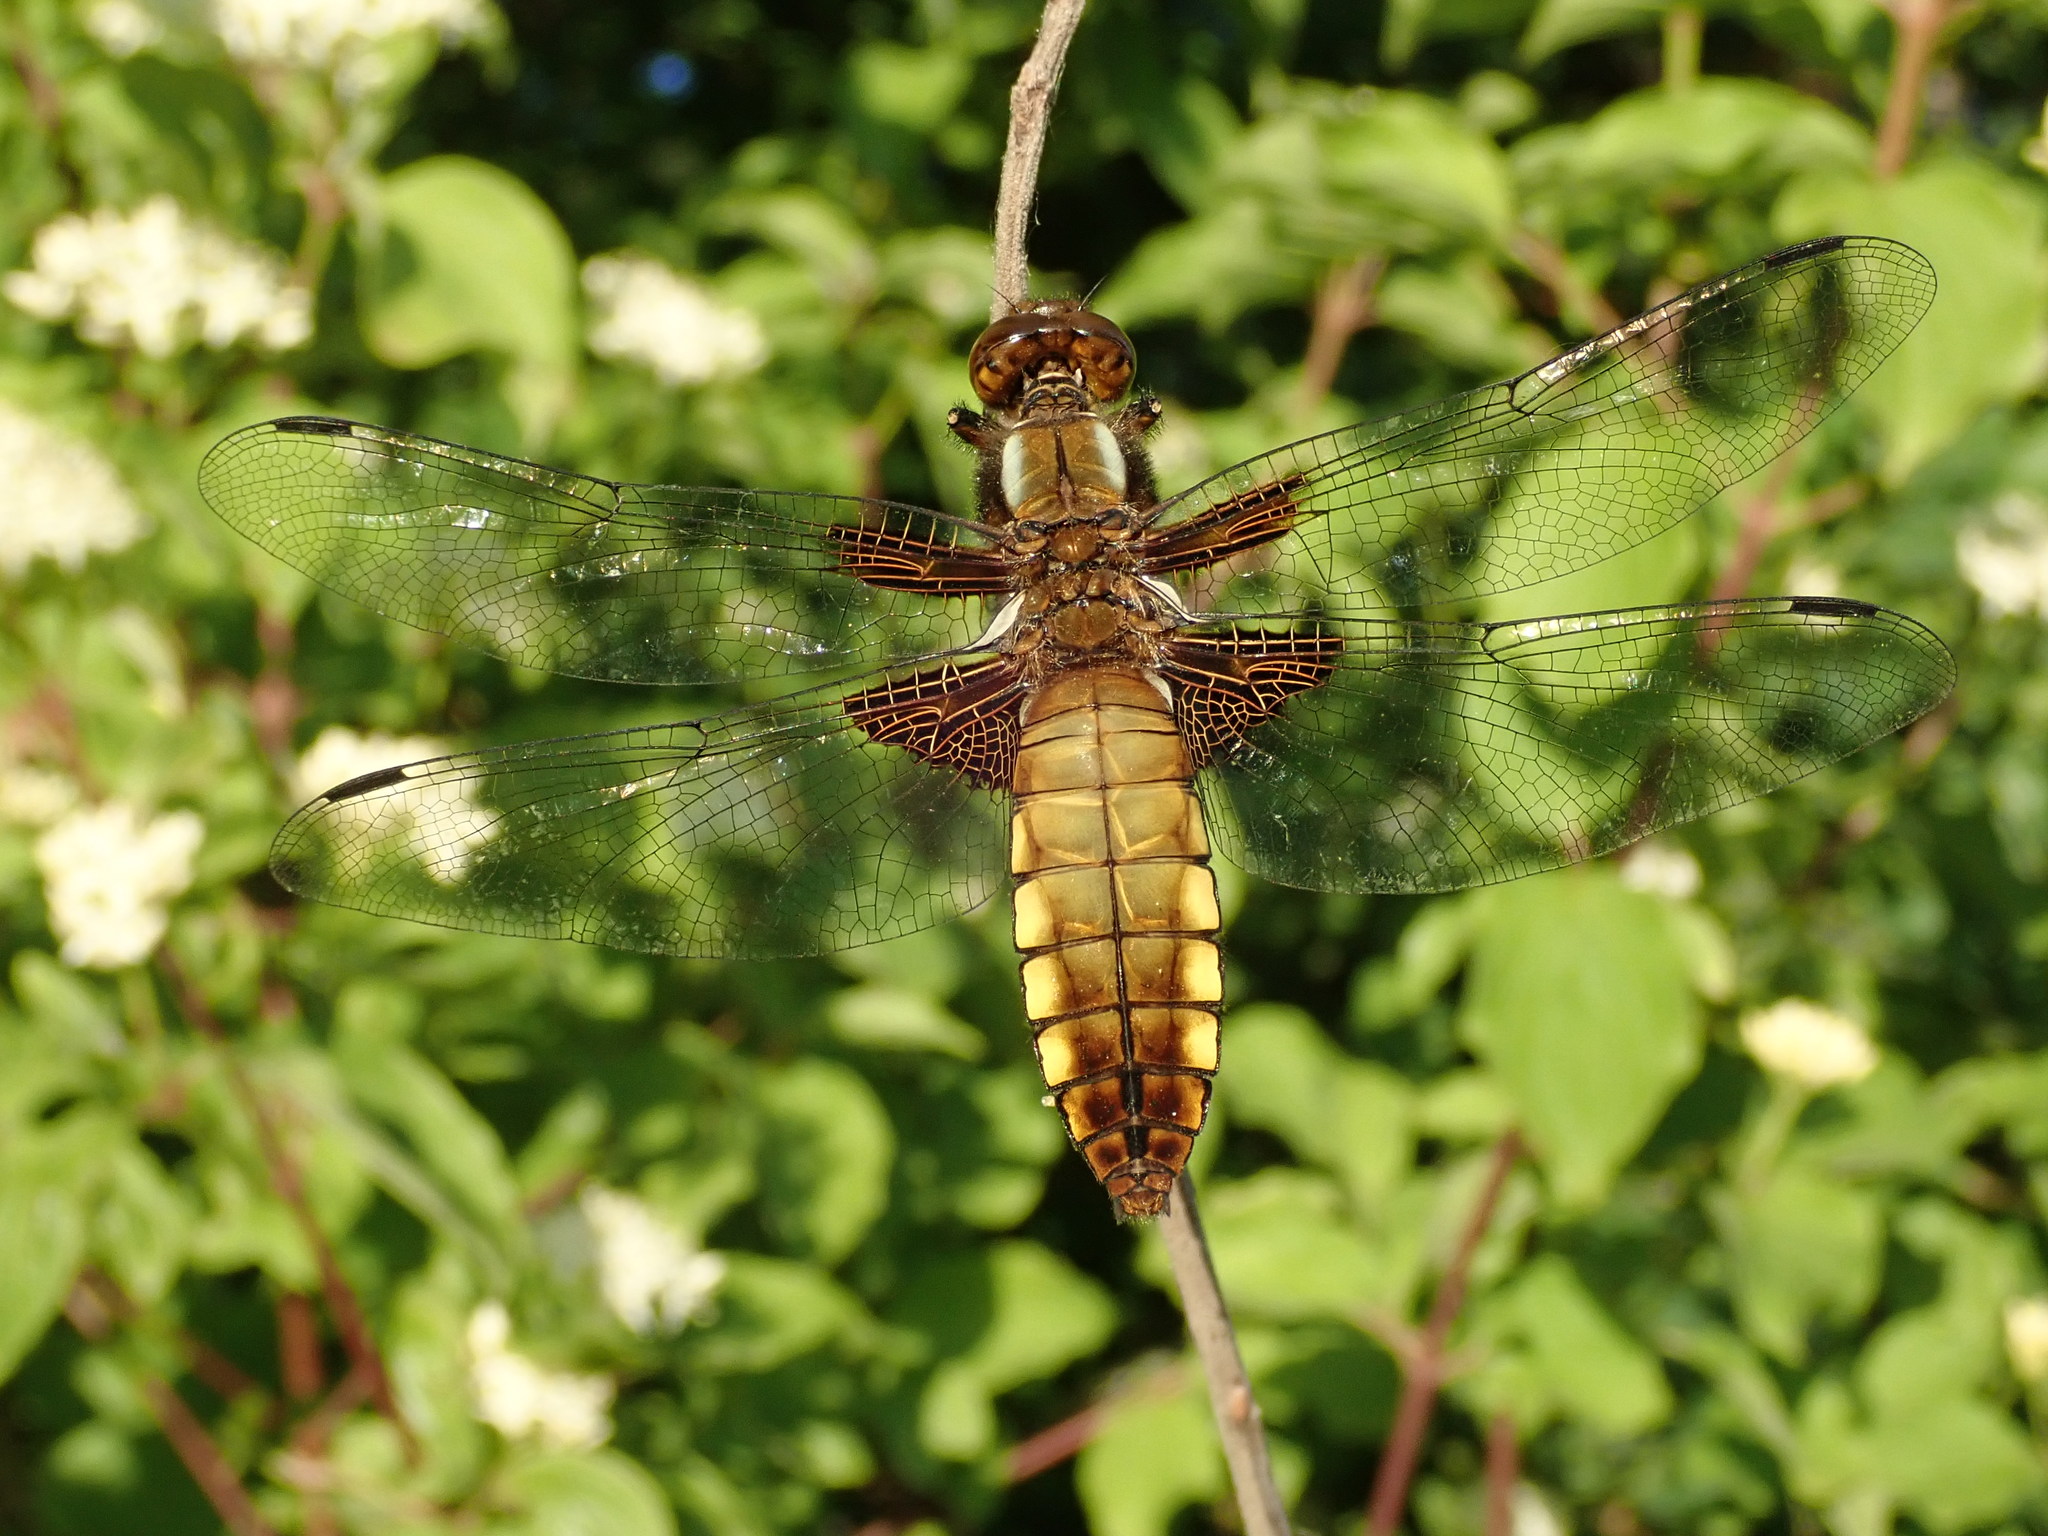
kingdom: Animalia
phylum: Arthropoda
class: Insecta
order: Odonata
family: Libellulidae
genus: Libellula
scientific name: Libellula depressa
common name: Broad-bodied chaser
